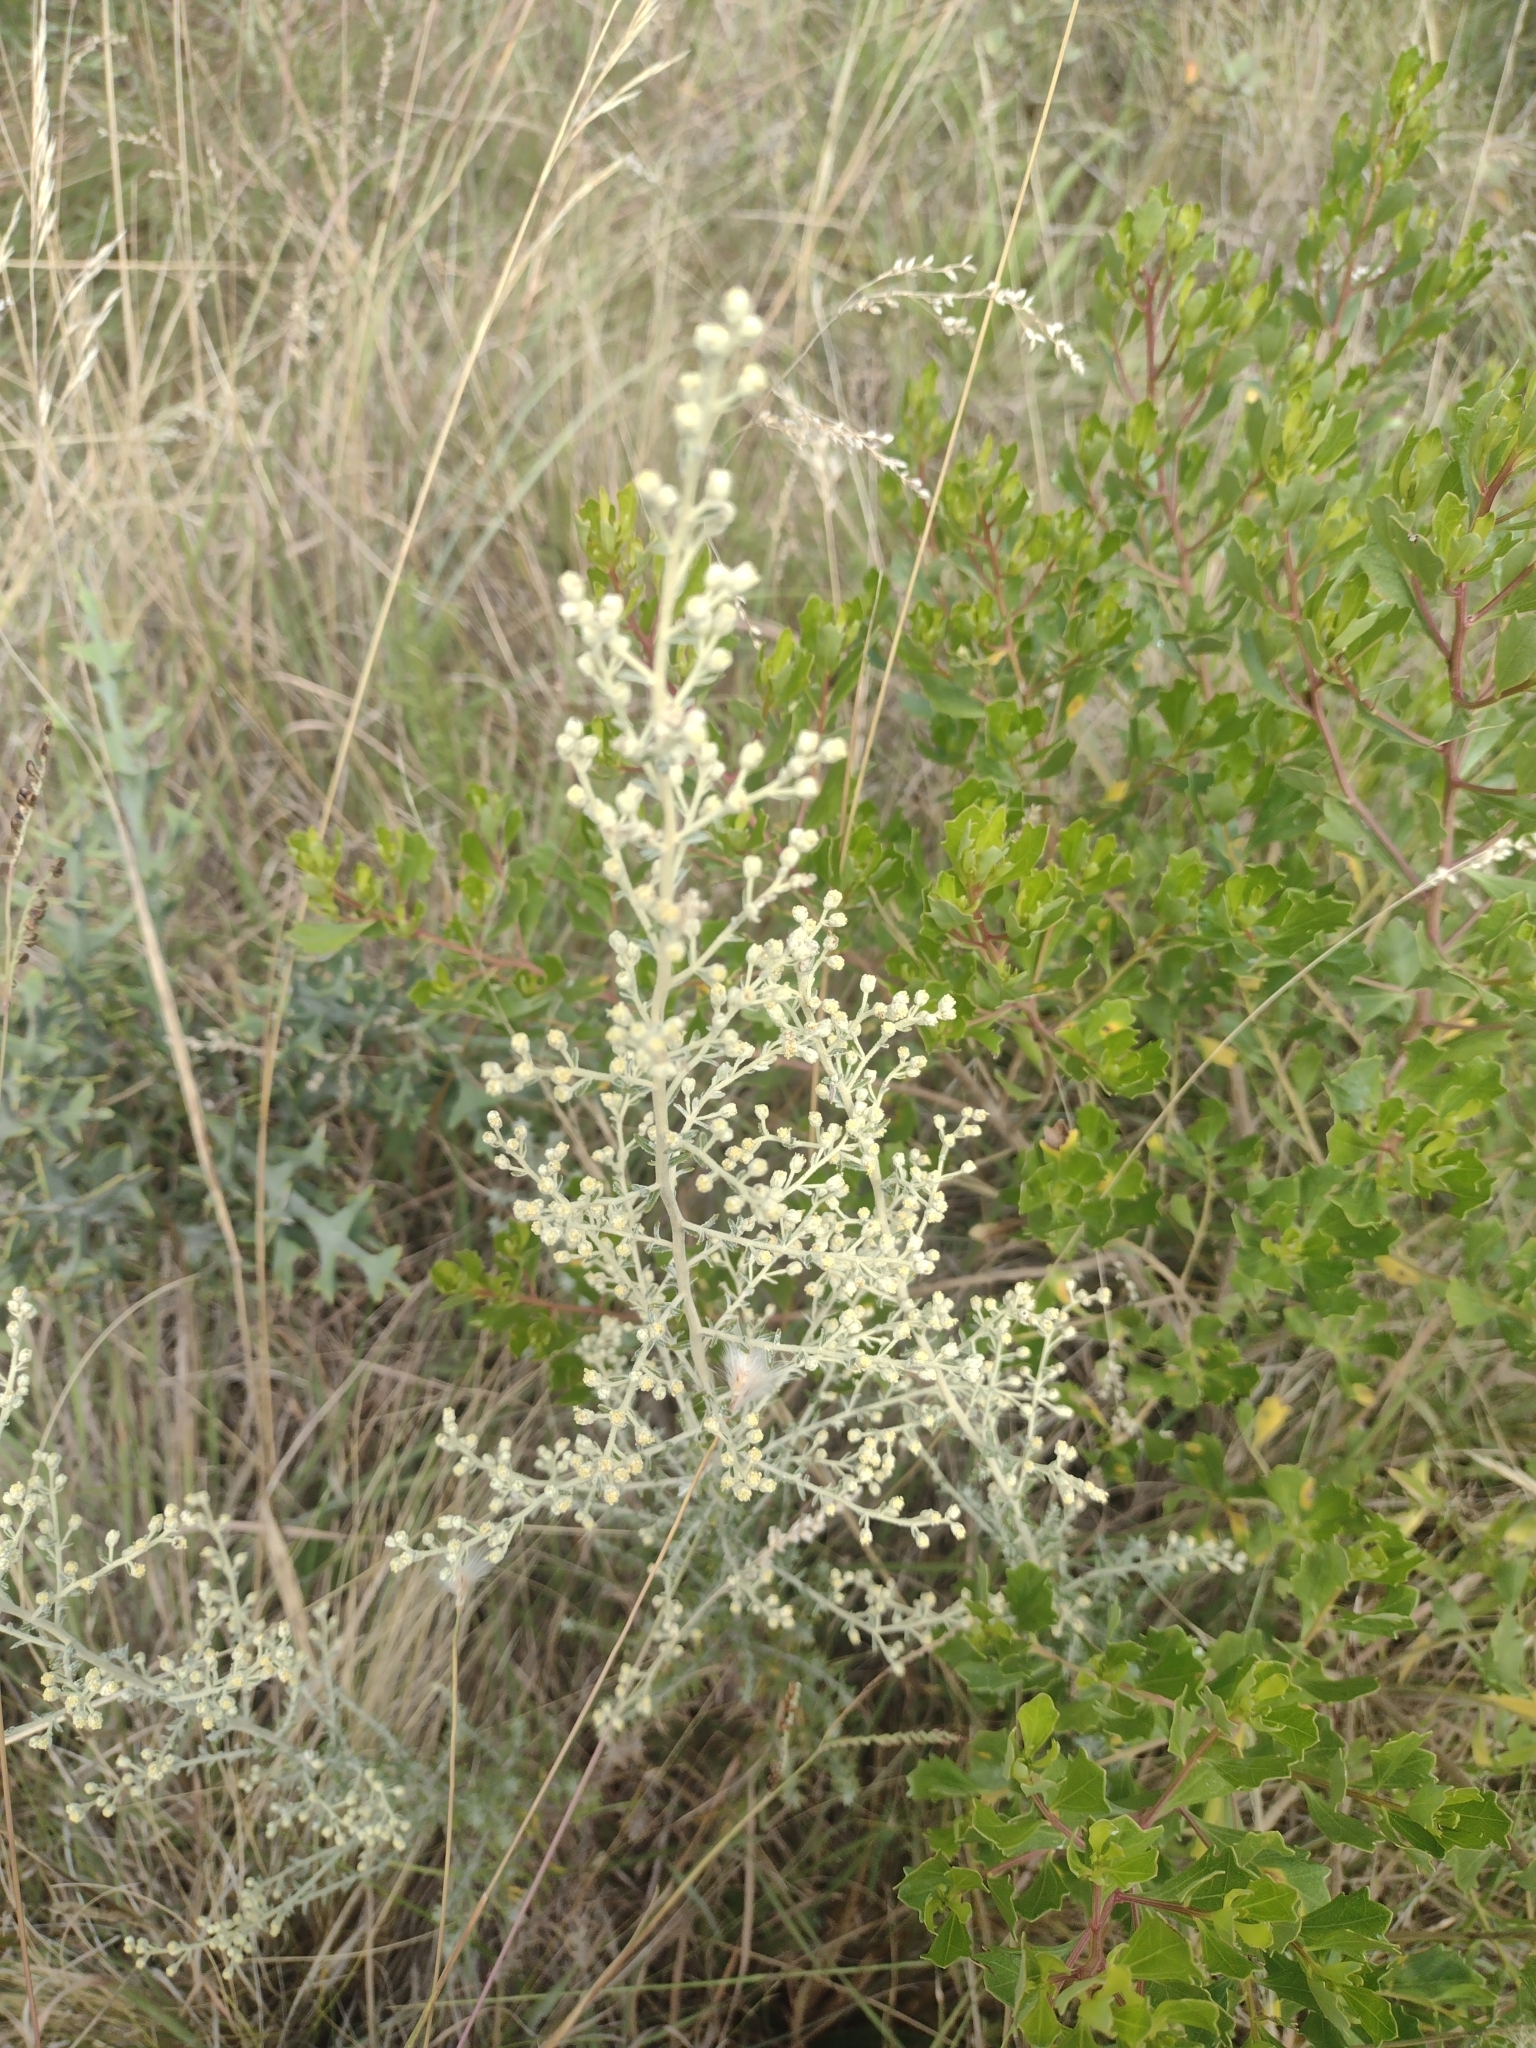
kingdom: Plantae
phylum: Tracheophyta
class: Magnoliopsida
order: Asterales
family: Asteraceae
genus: Baccharis
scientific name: Baccharis ochracea
